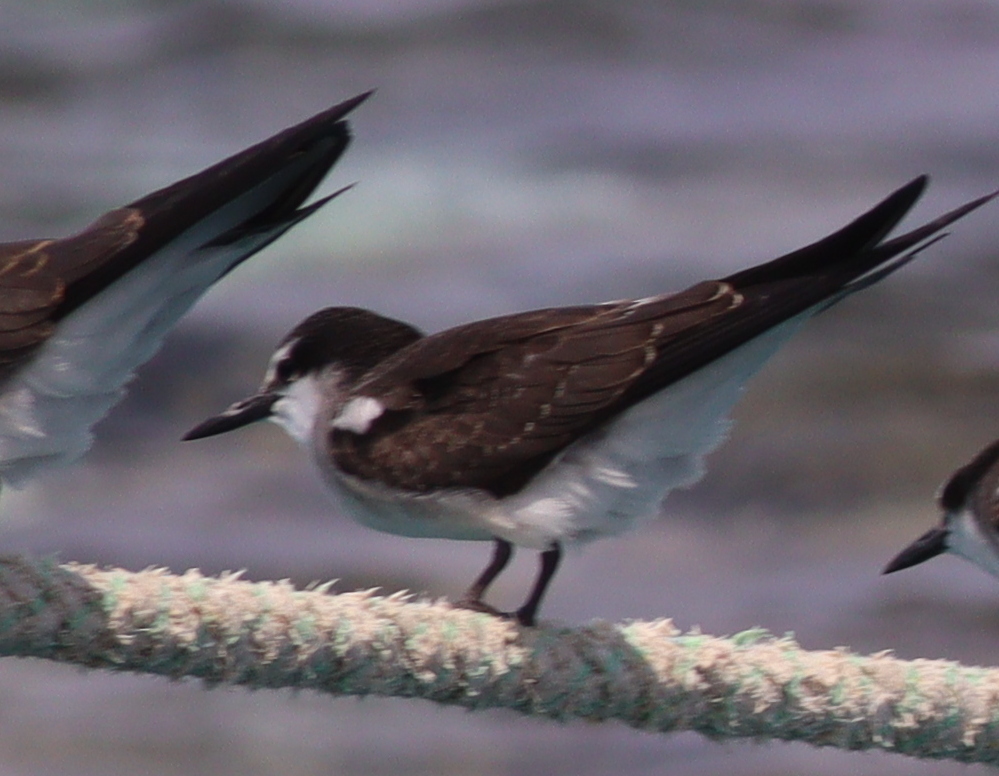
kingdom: Animalia
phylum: Chordata
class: Aves
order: Charadriiformes
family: Laridae
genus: Onychoprion
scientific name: Onychoprion anaethetus
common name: Bridled tern
